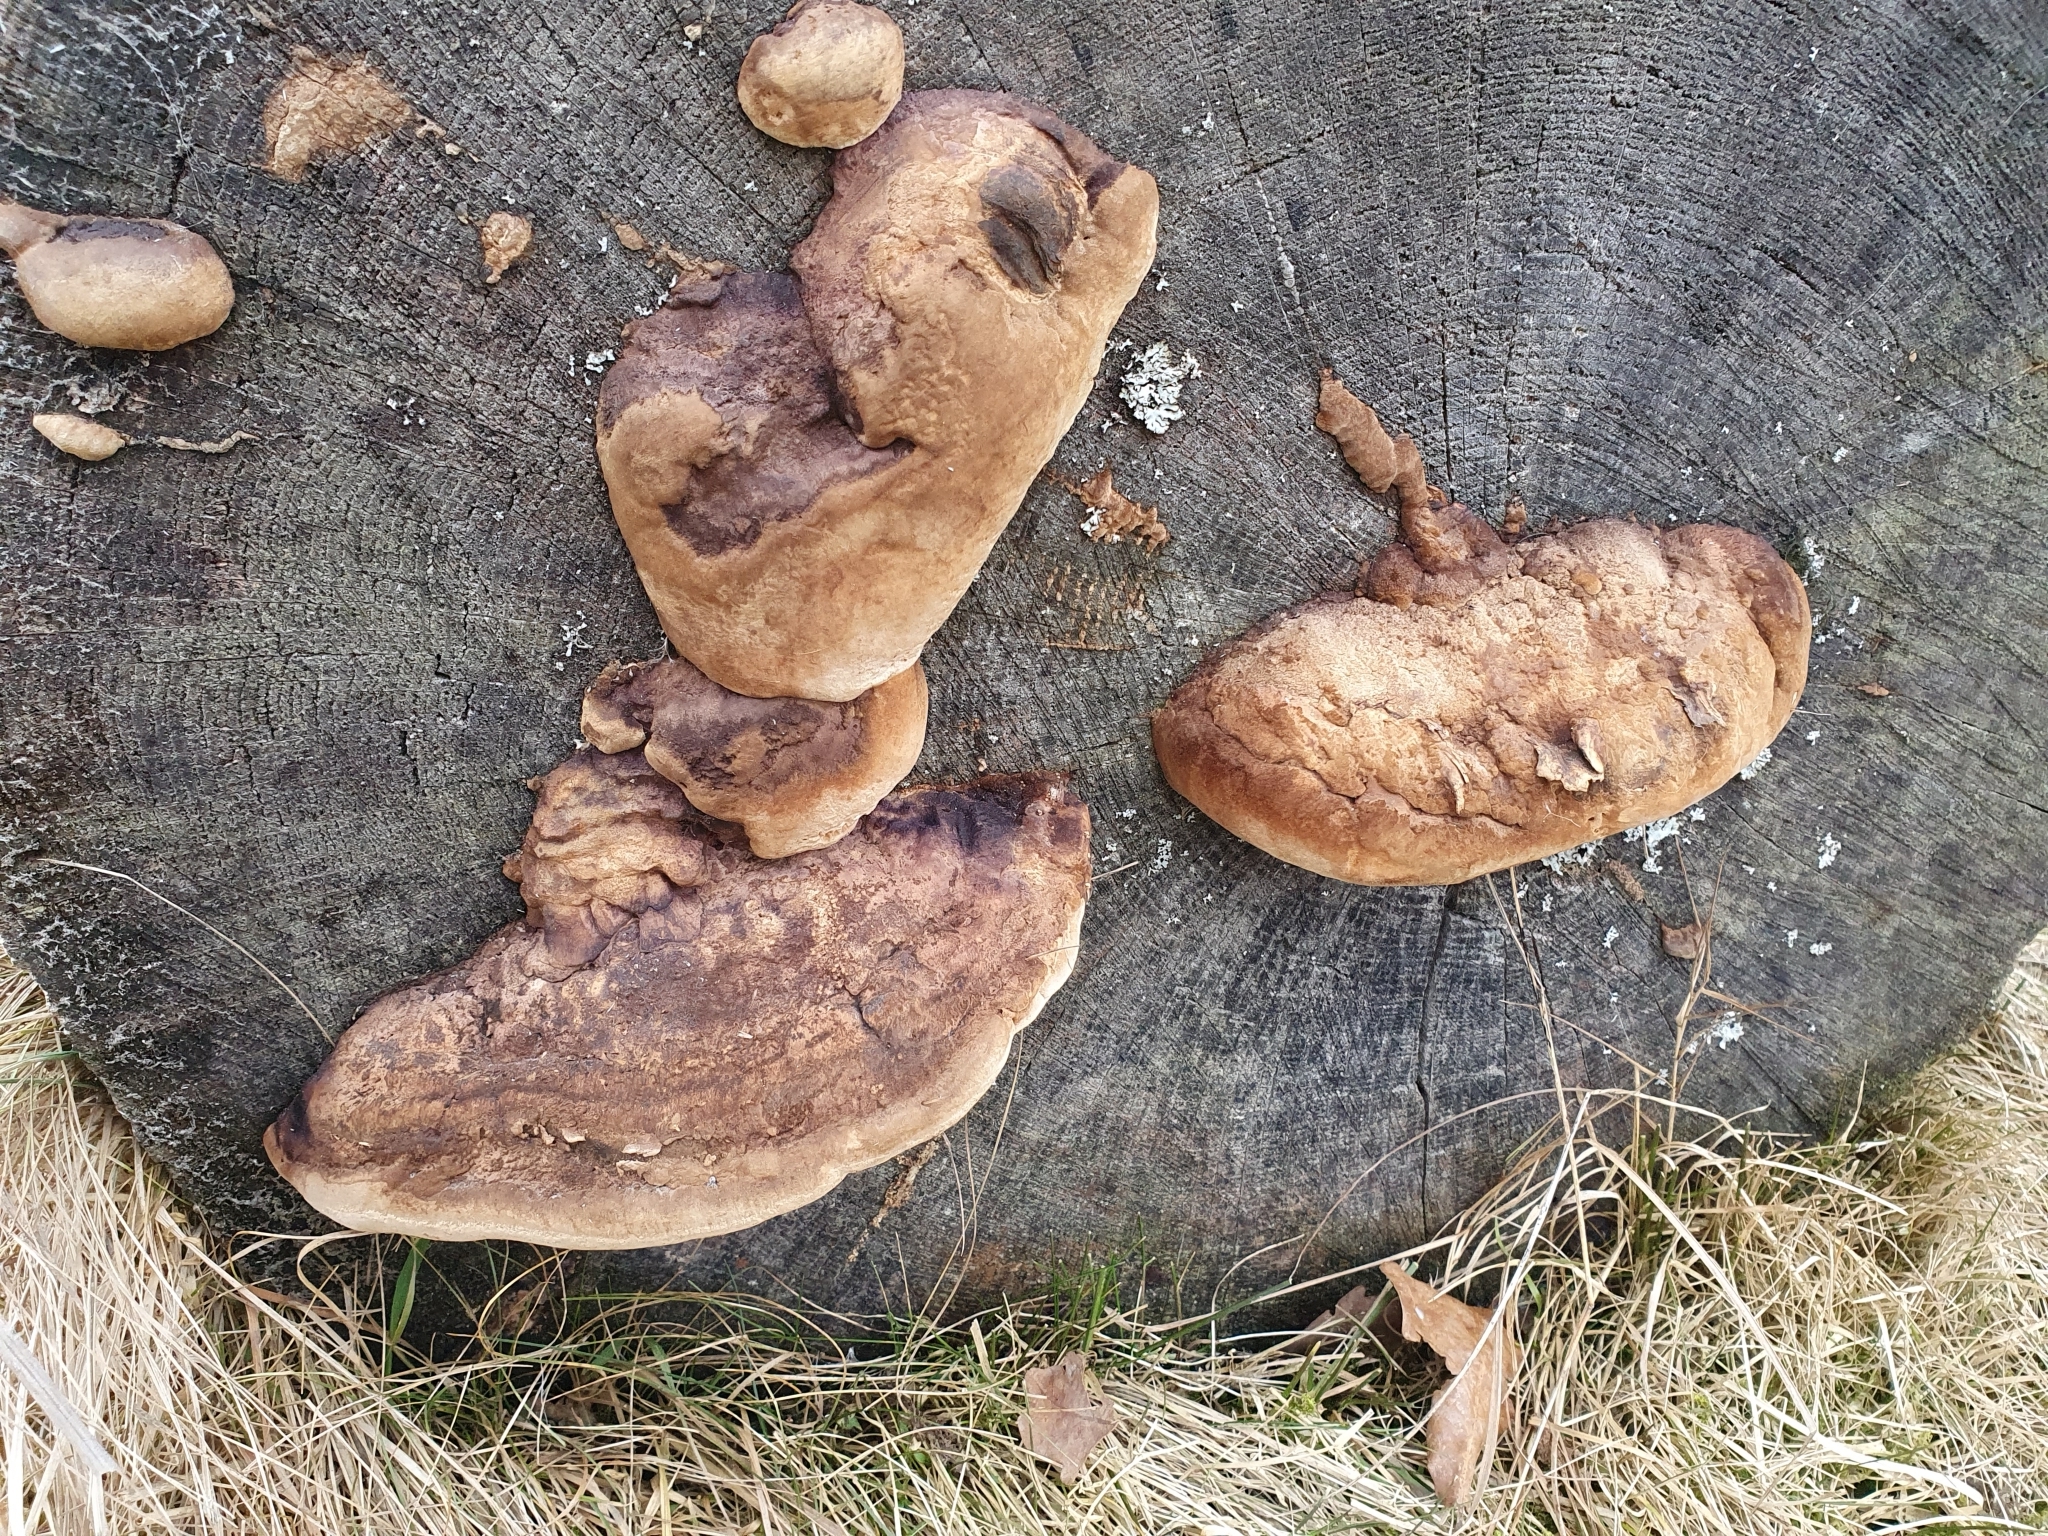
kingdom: Fungi
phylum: Basidiomycota
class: Agaricomycetes
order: Polyporales
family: Fomitopsidaceae
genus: Fomitopsis
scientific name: Fomitopsis
